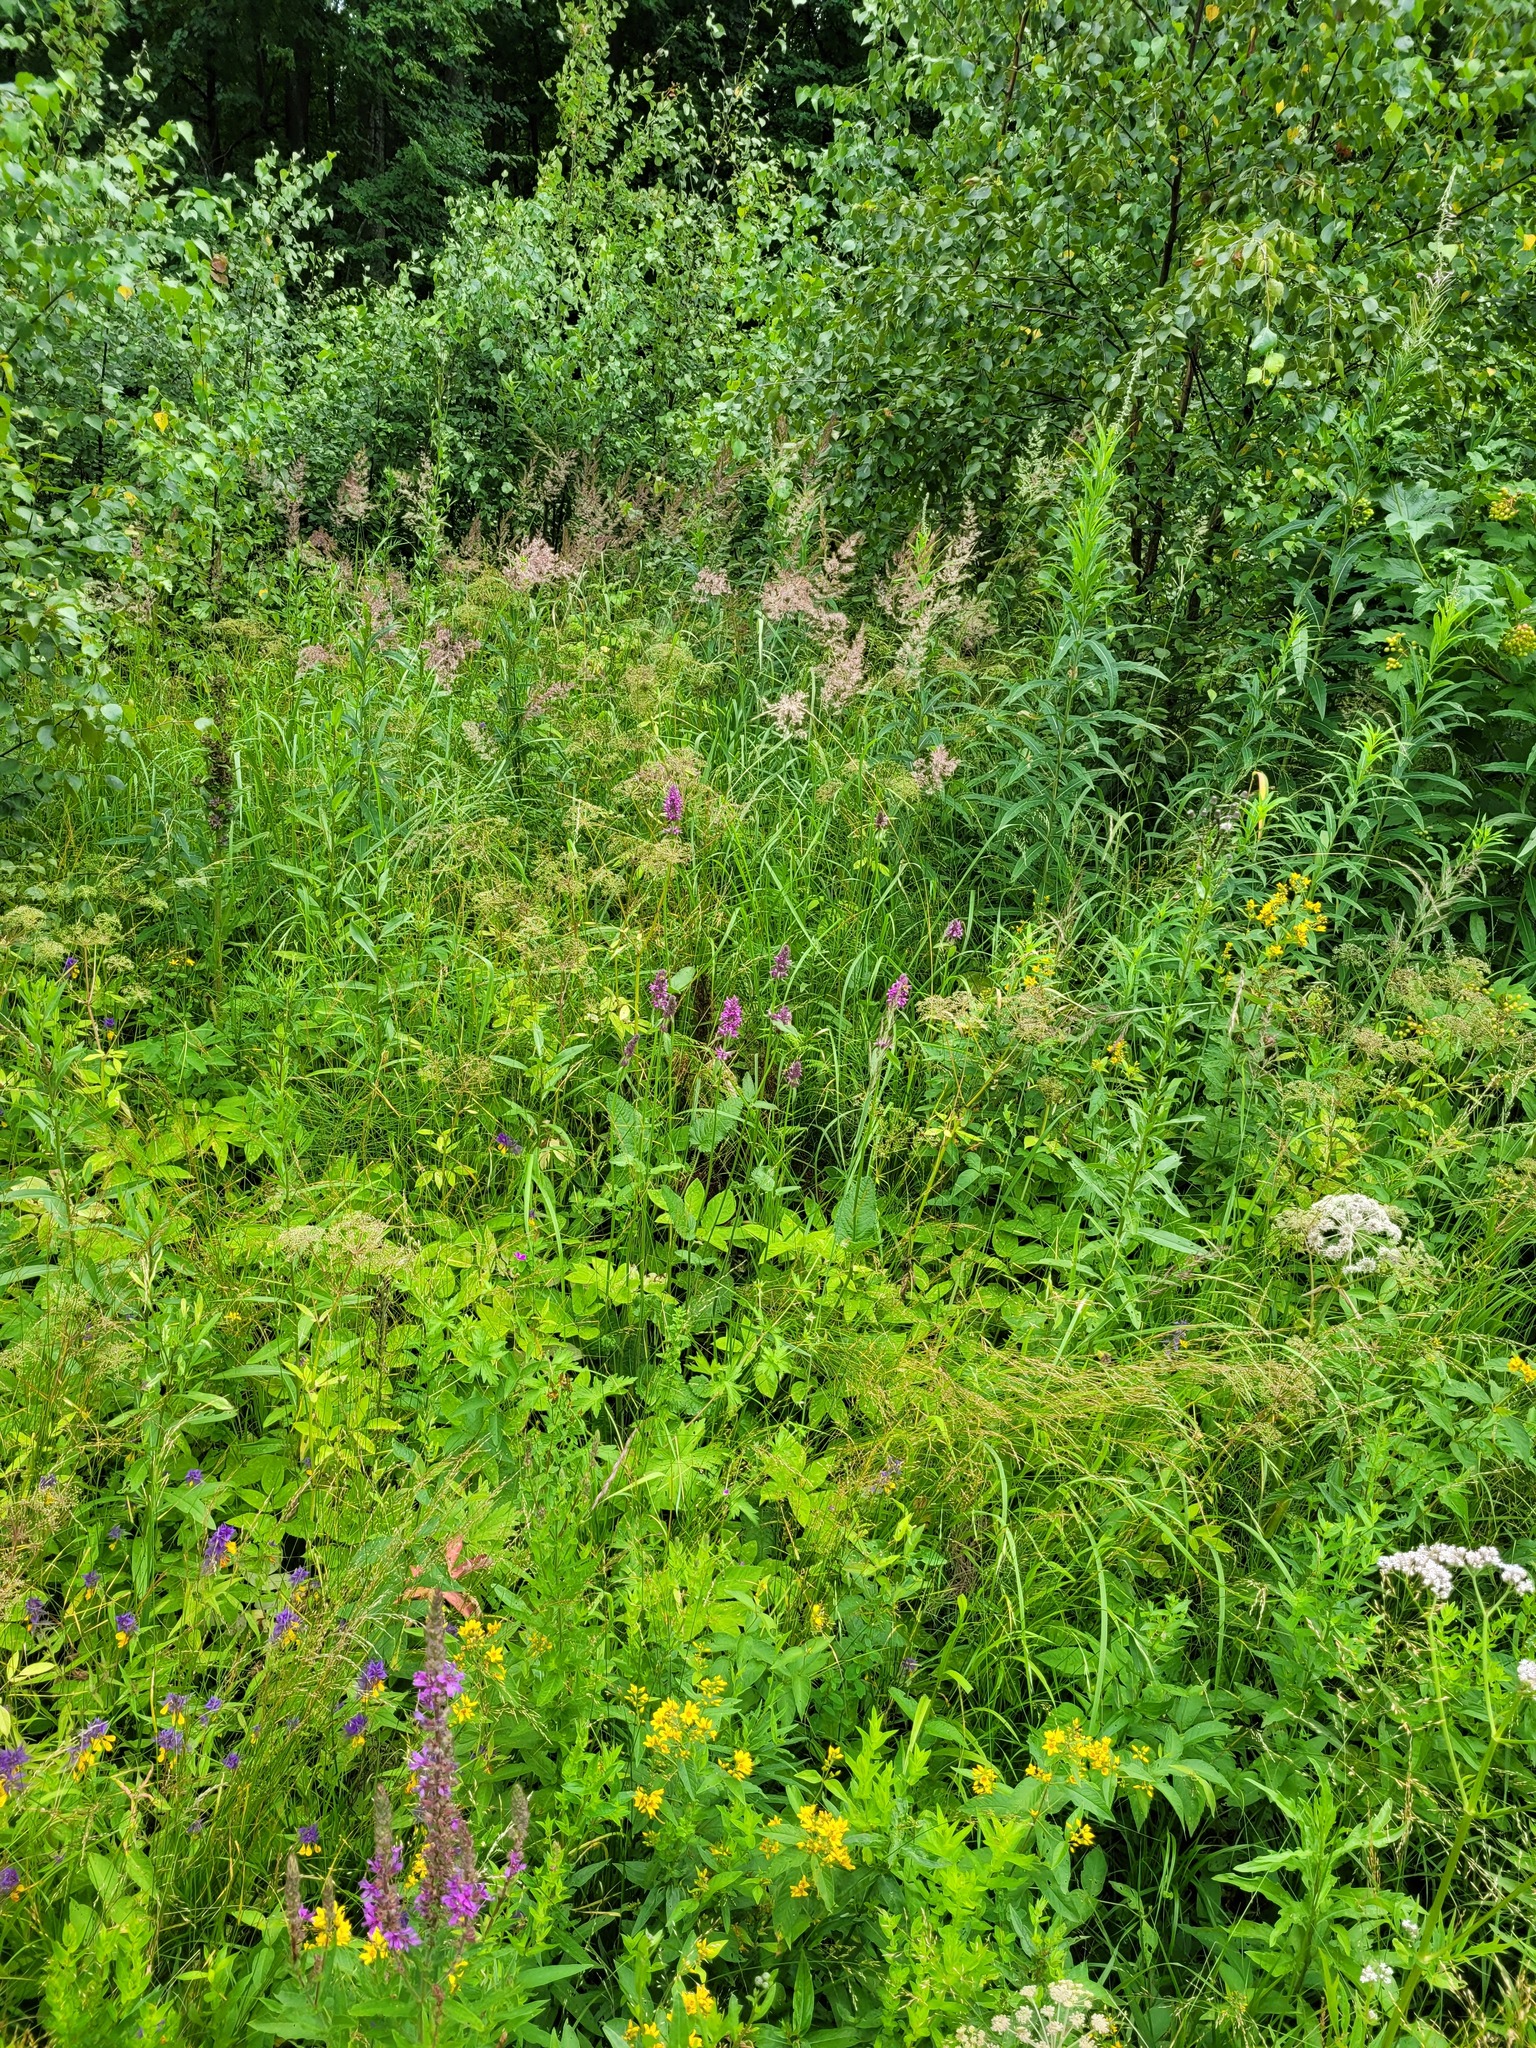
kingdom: Plantae
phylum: Tracheophyta
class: Magnoliopsida
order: Apiales
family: Apiaceae
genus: Aegopodium
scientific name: Aegopodium podagraria
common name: Ground-elder
